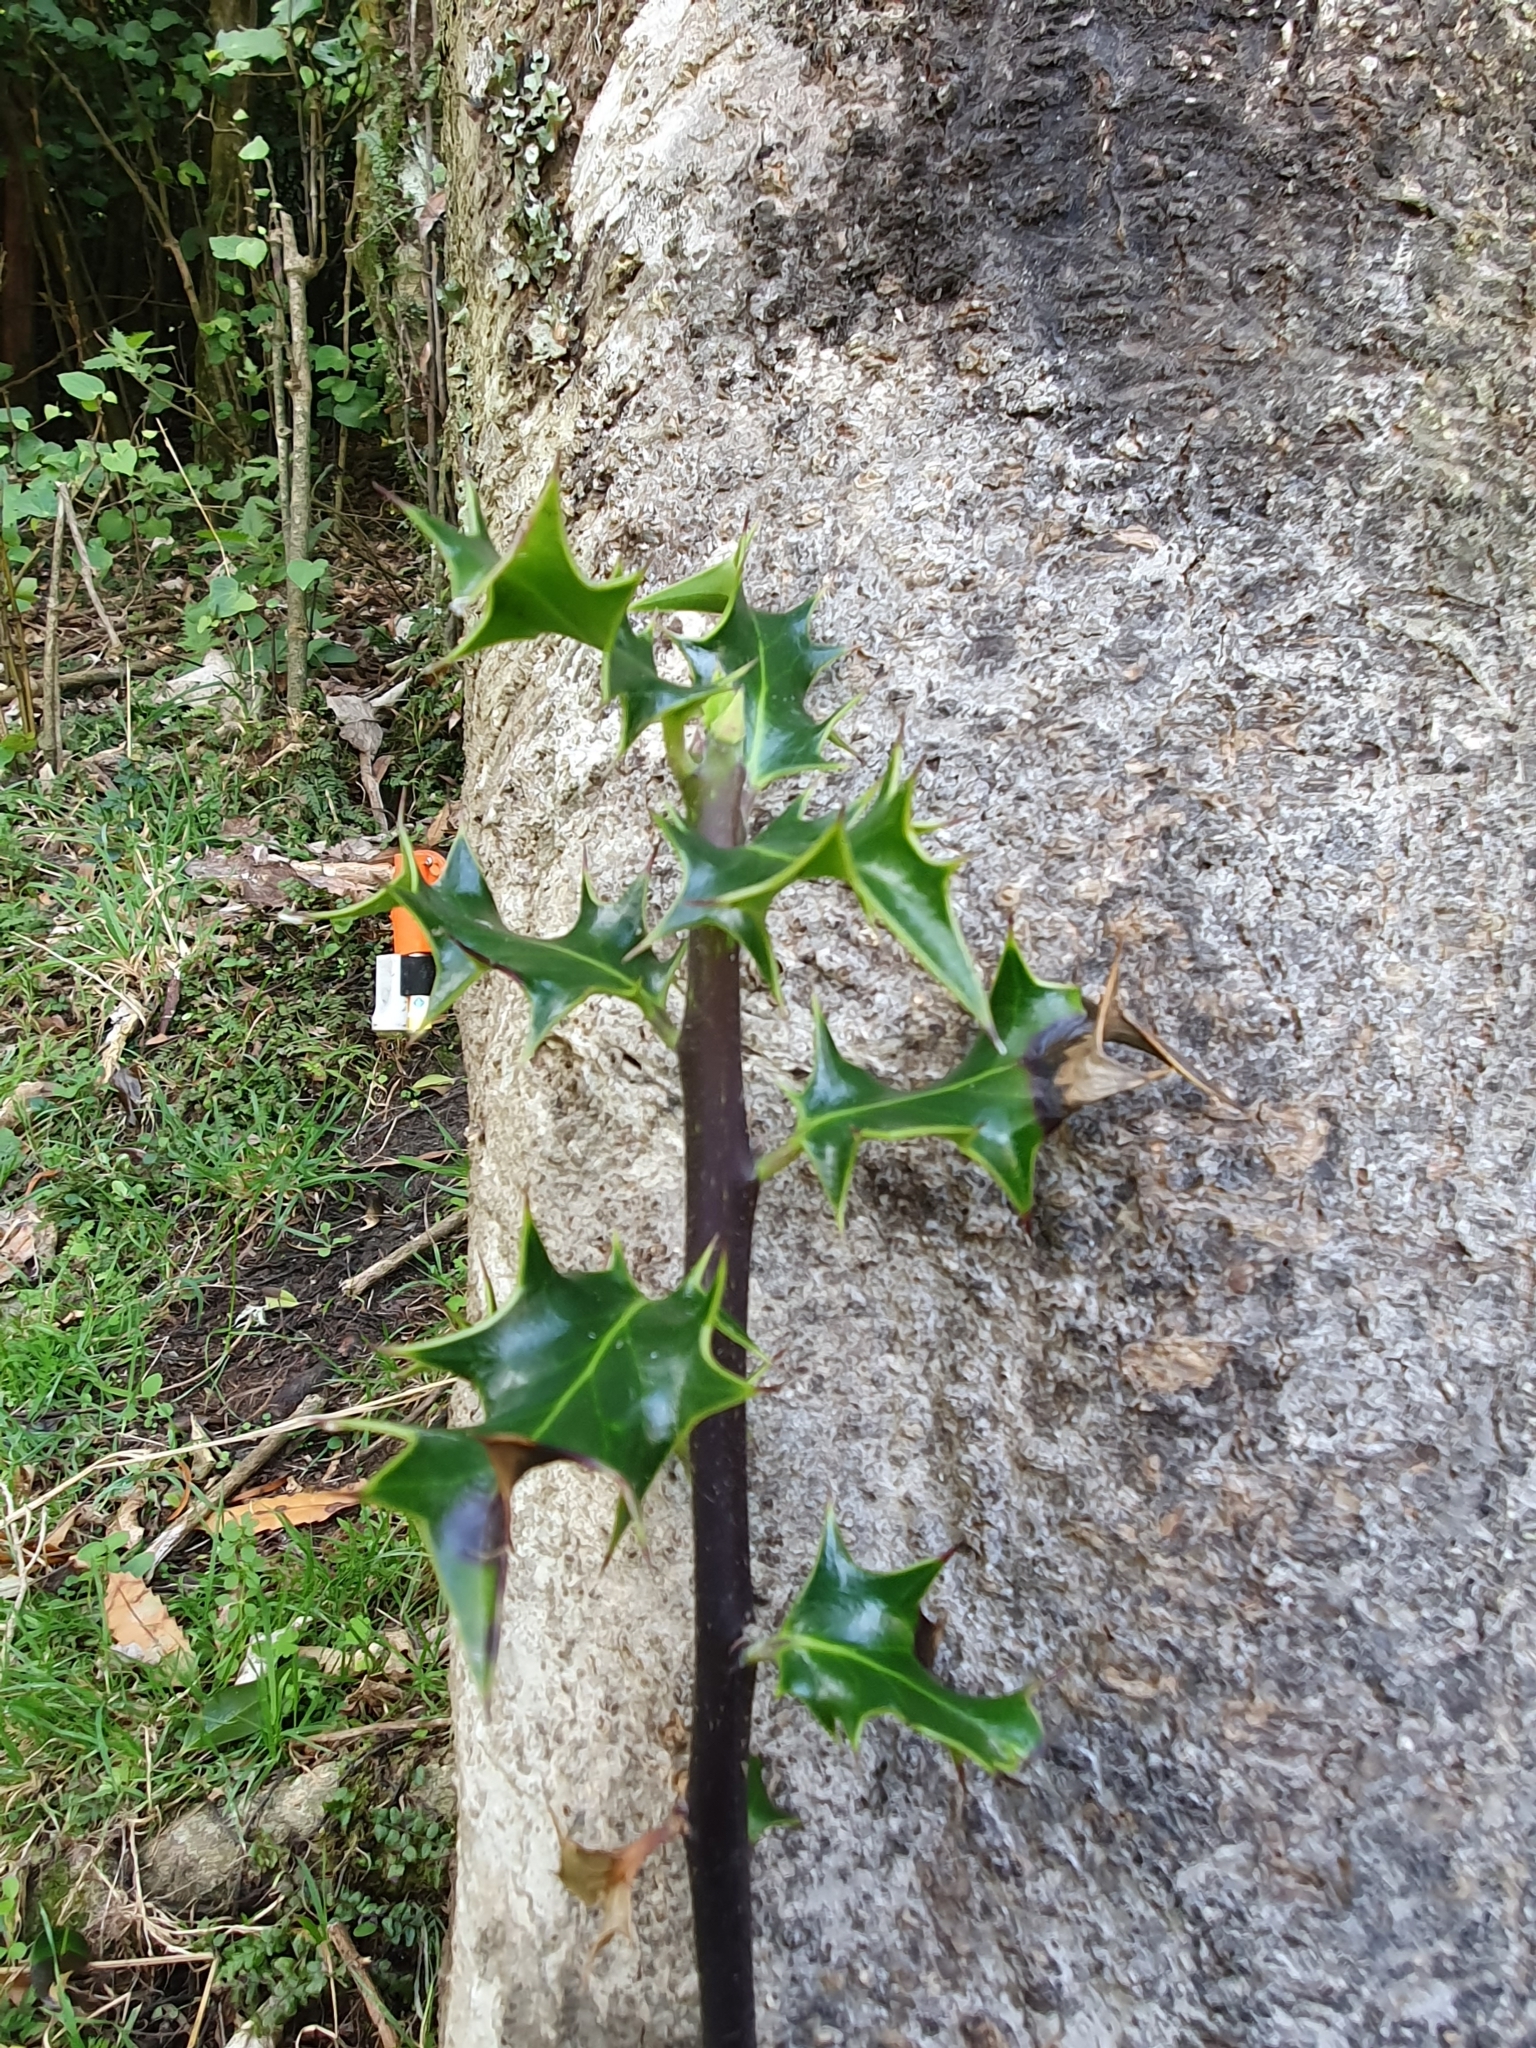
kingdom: Plantae
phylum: Tracheophyta
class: Magnoliopsida
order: Aquifoliales
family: Aquifoliaceae
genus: Ilex
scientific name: Ilex aquifolium
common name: English holly
